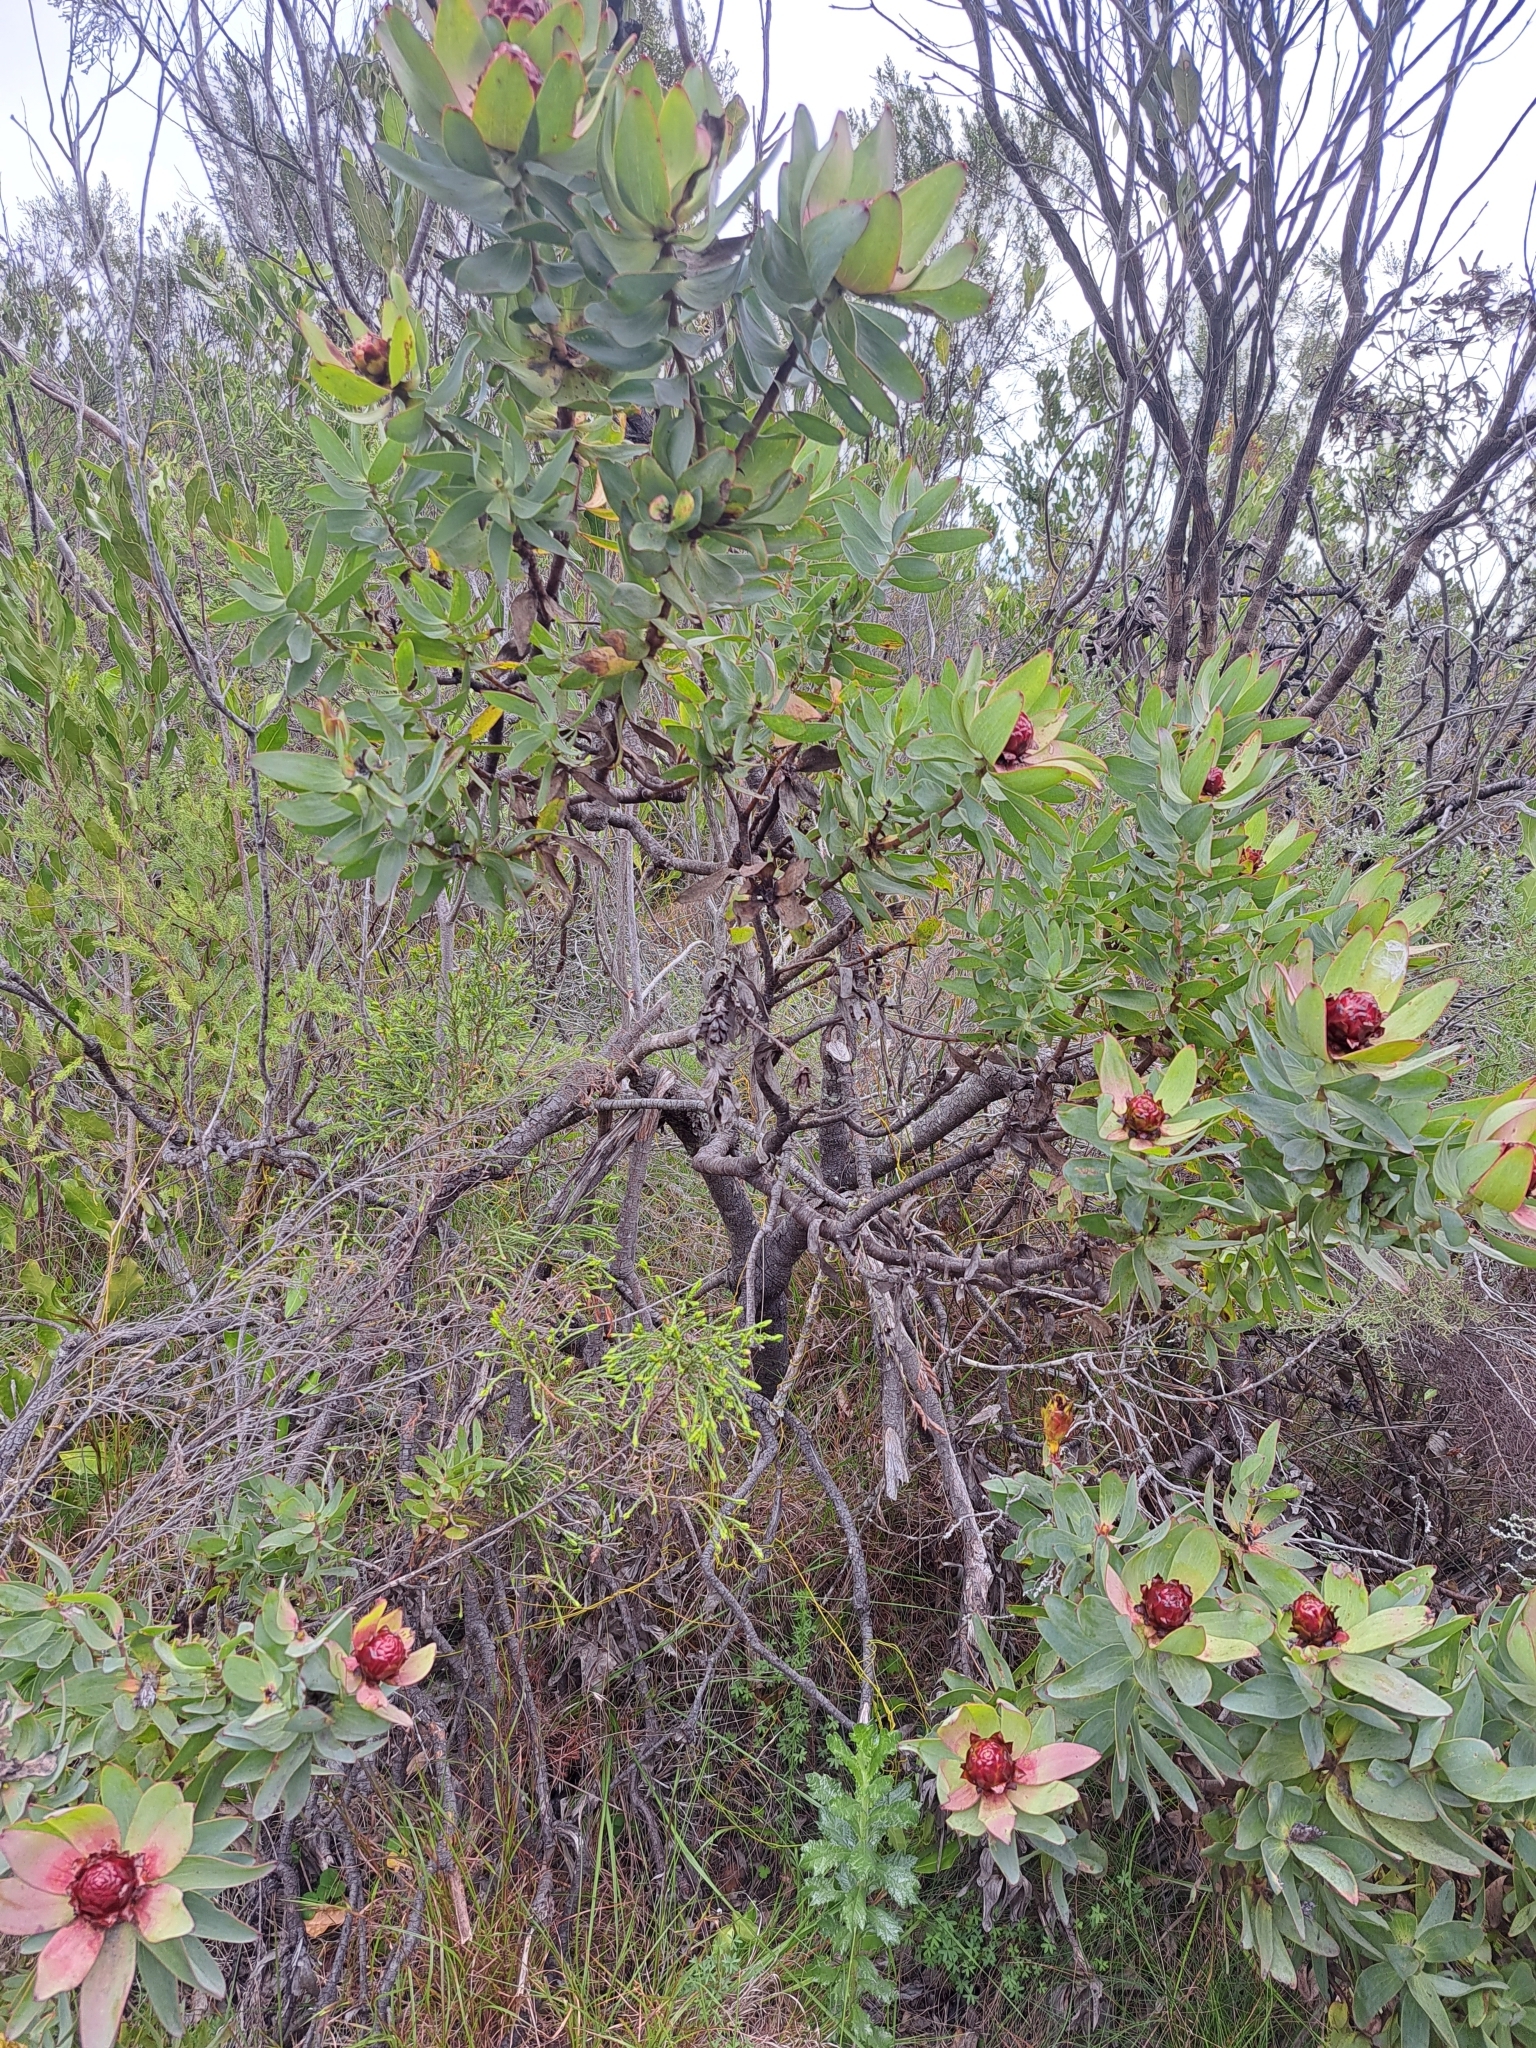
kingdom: Plantae
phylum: Tracheophyta
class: Magnoliopsida
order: Proteales
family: Proteaceae
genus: Leucadendron
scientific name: Leucadendron tinctum
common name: Spicy conebush
